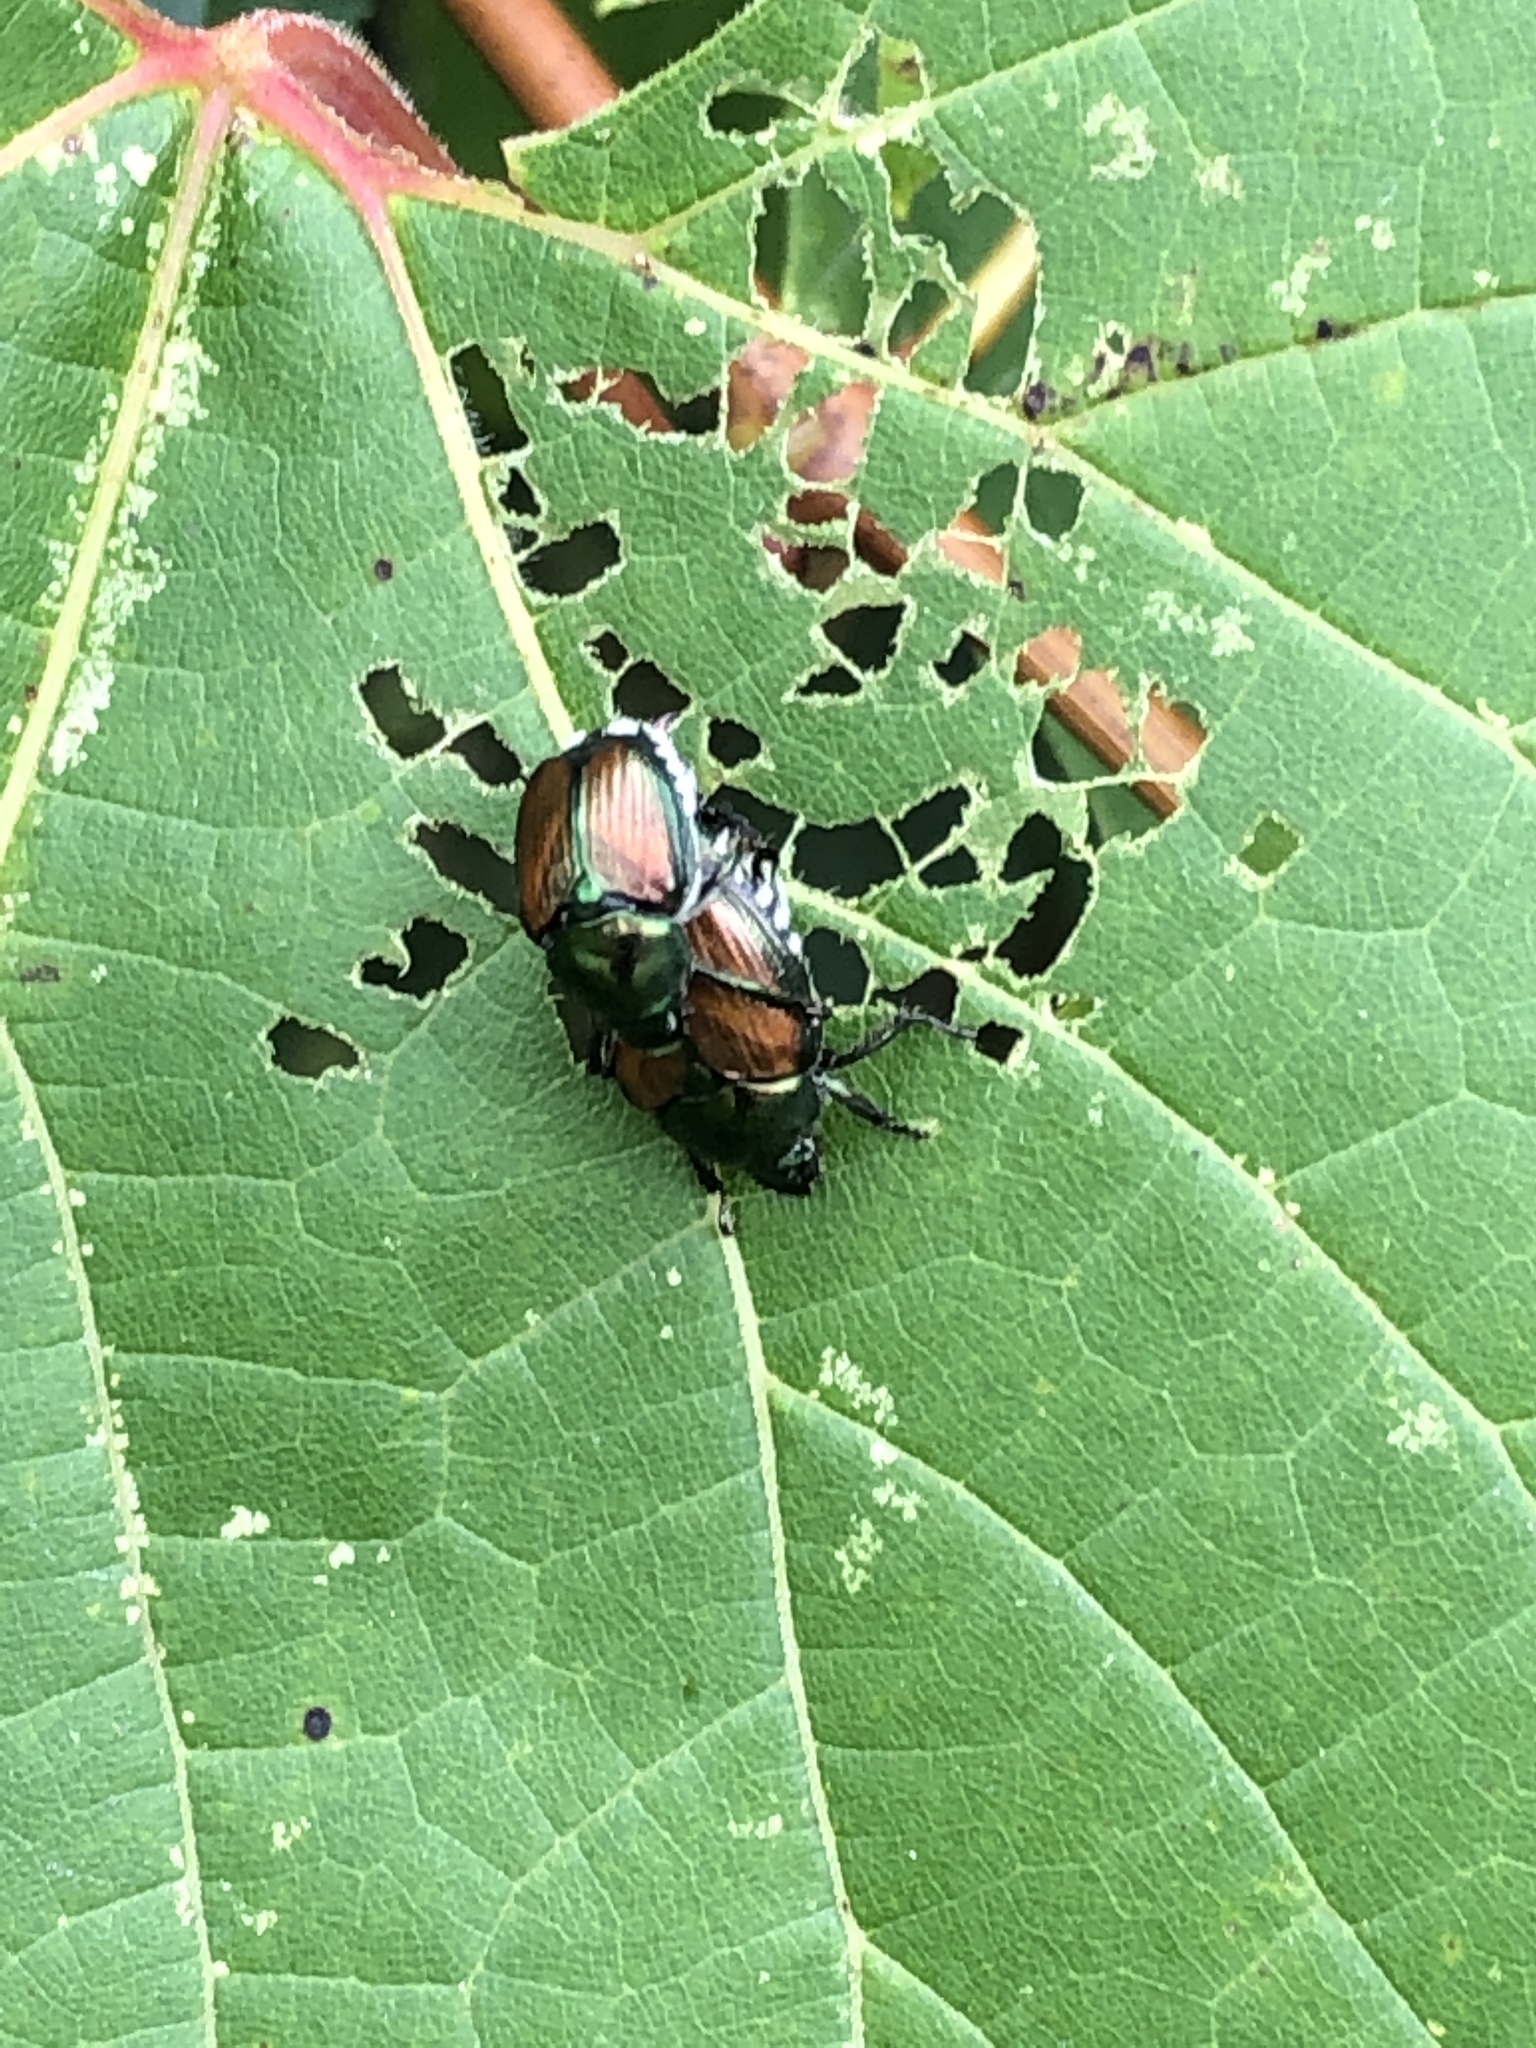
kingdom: Animalia
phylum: Arthropoda
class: Insecta
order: Coleoptera
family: Scarabaeidae
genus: Popillia
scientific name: Popillia japonica
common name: Japanese beetle
